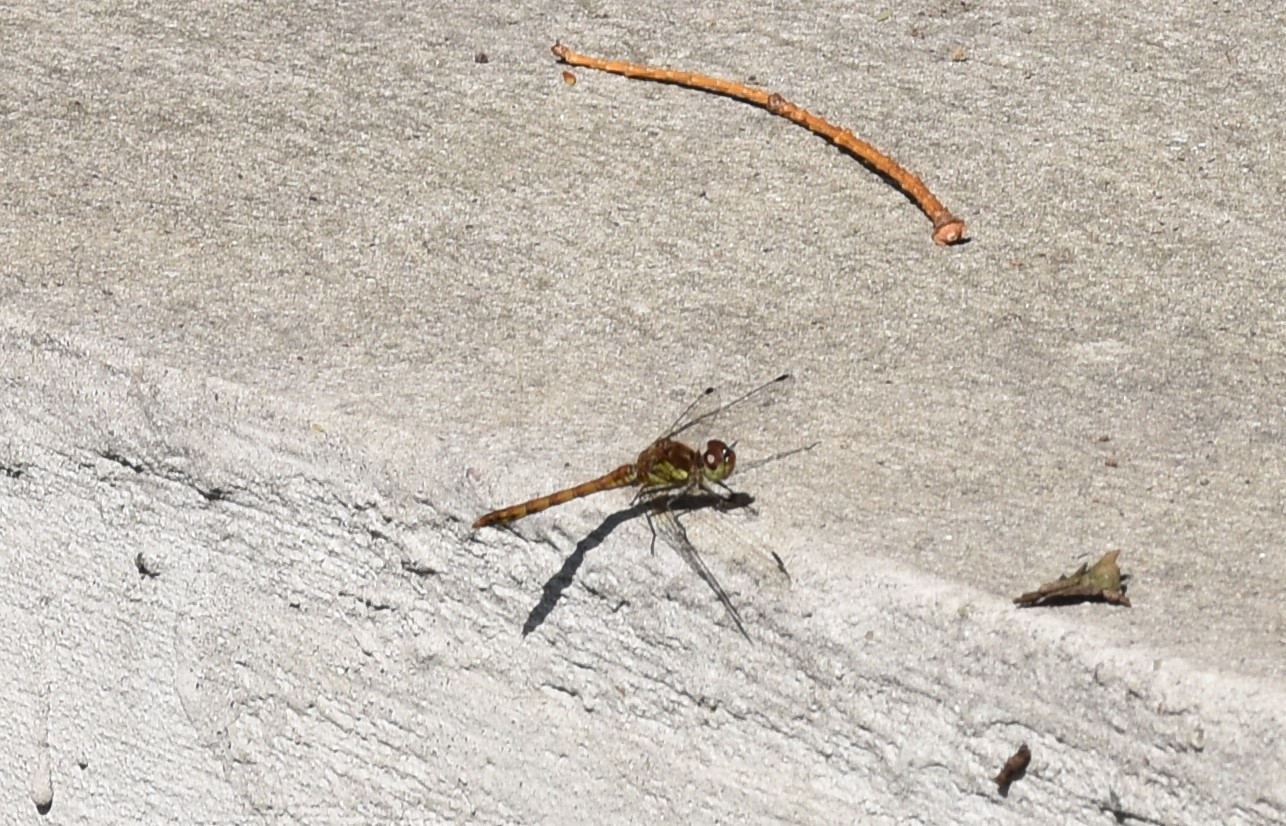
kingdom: Animalia
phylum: Arthropoda
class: Insecta
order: Odonata
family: Libellulidae
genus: Sympetrum
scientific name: Sympetrum striolatum
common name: Common darter
